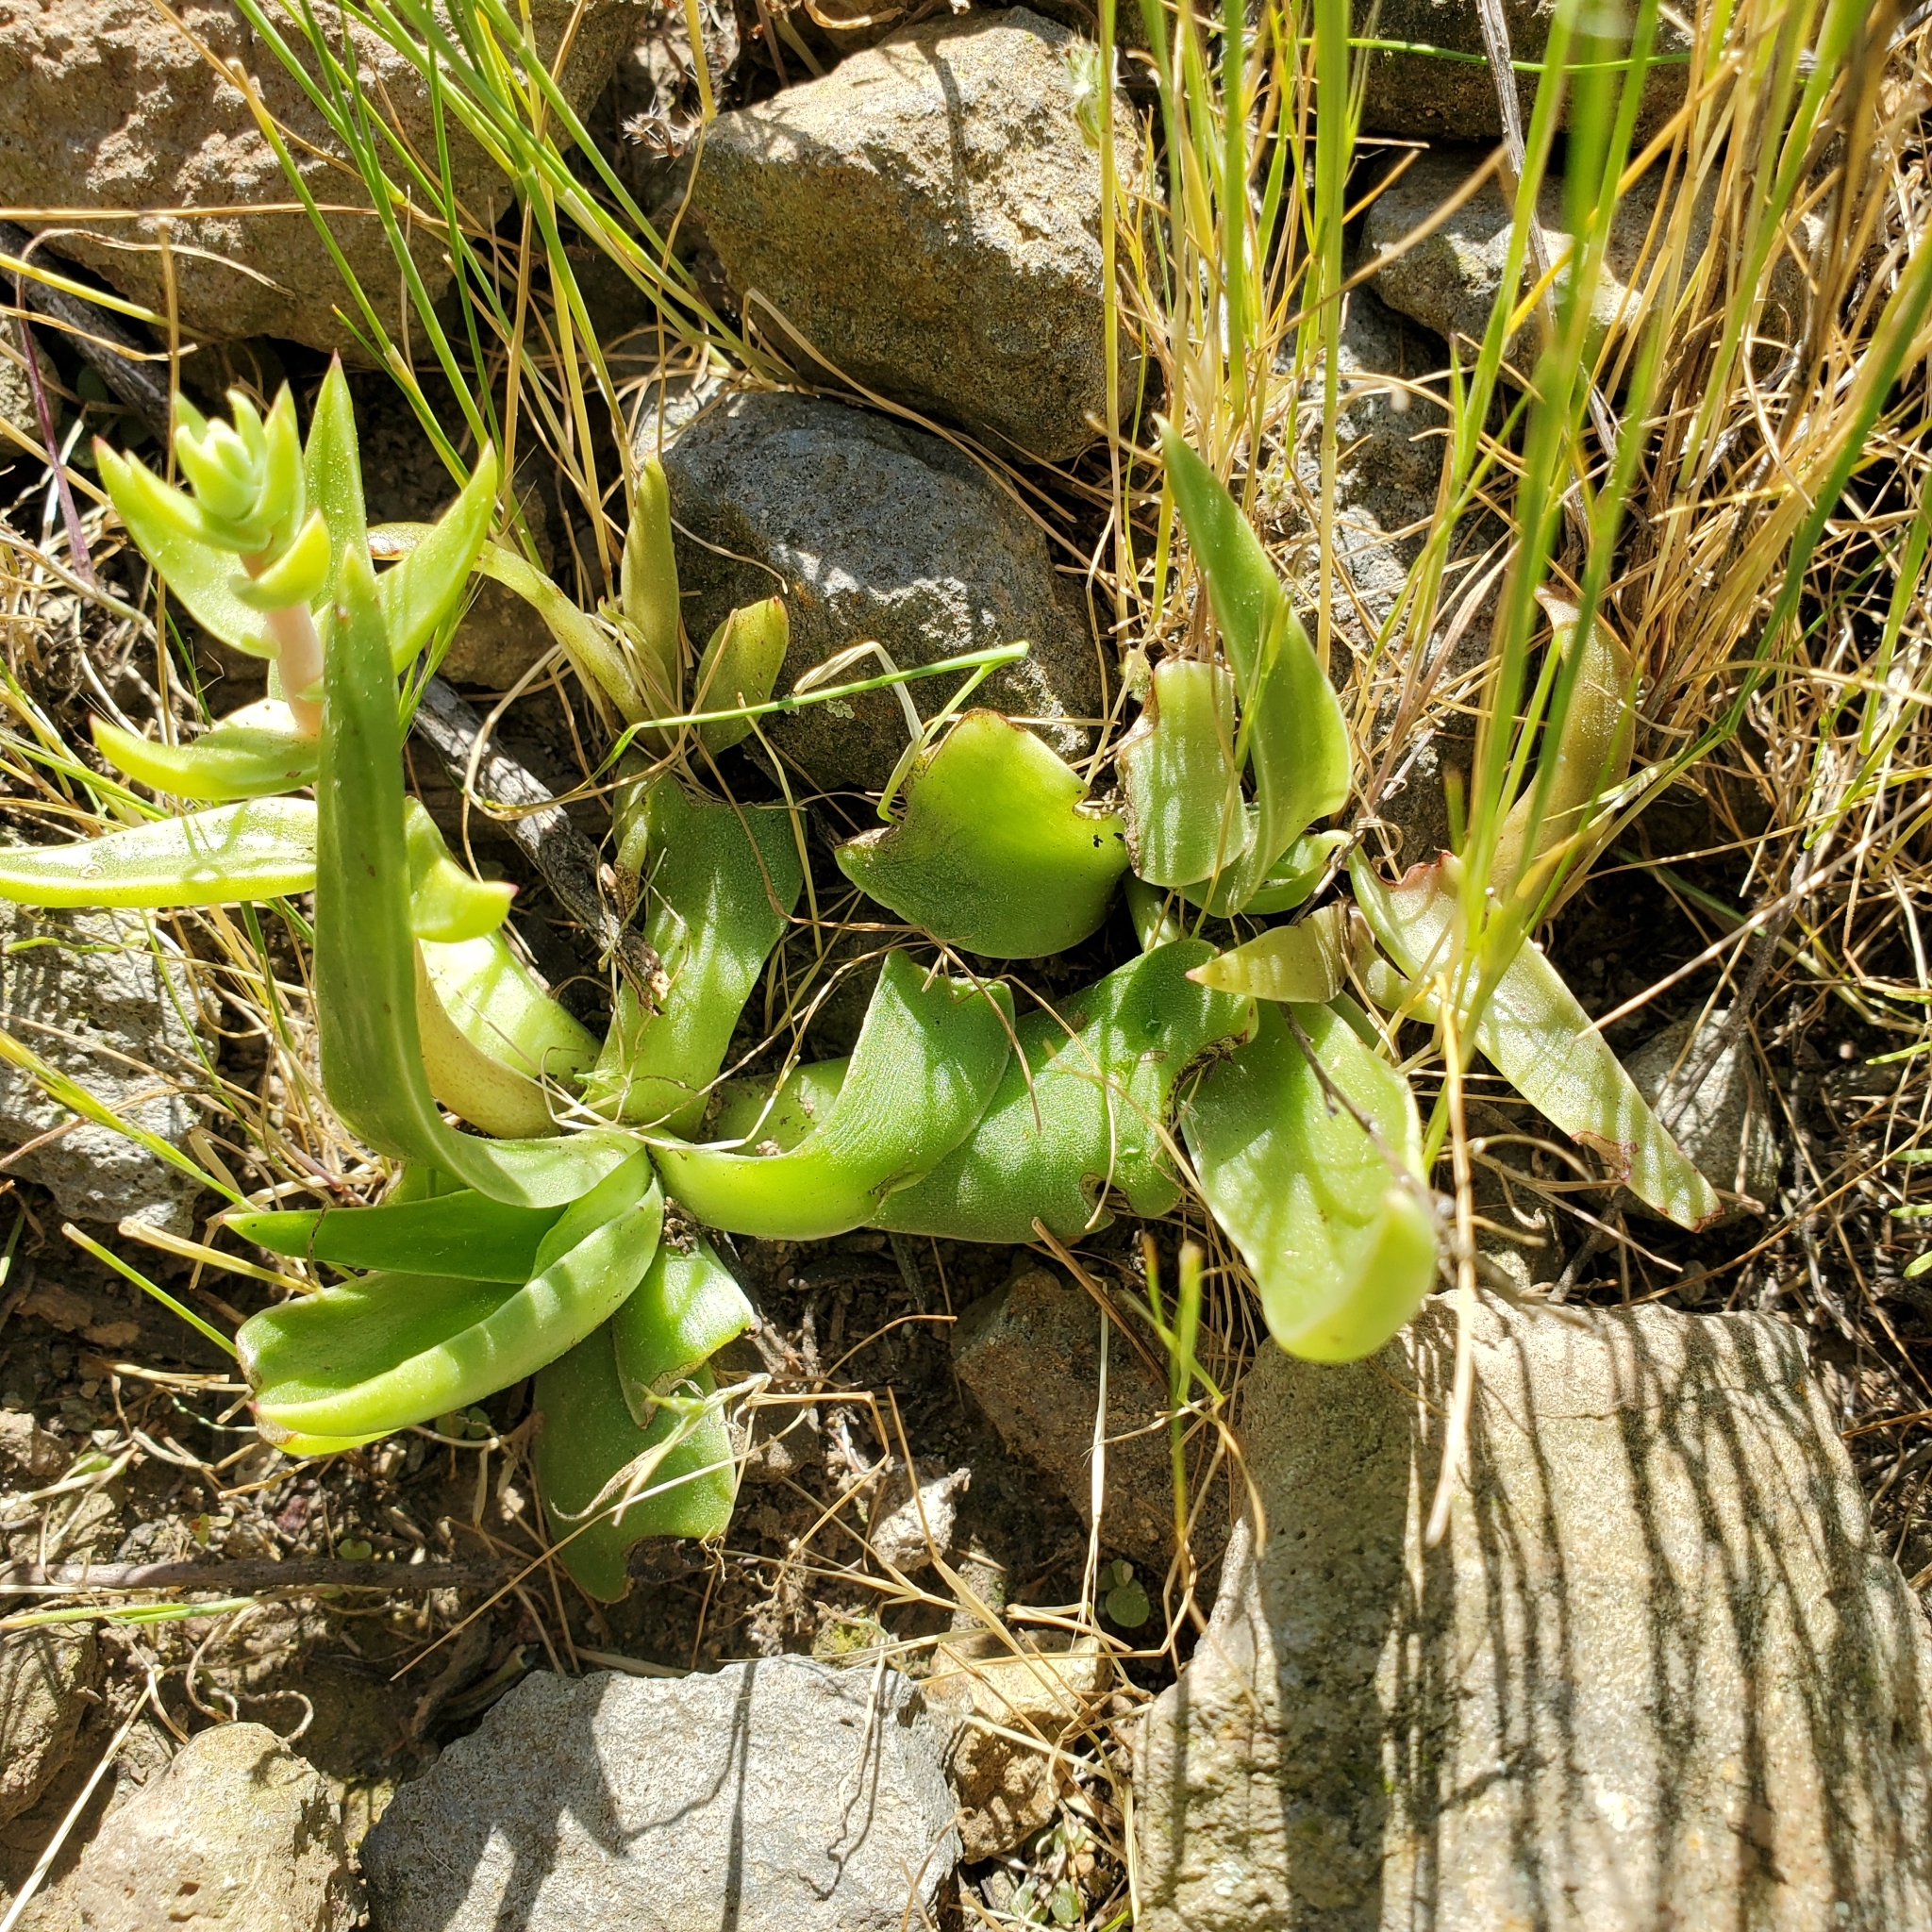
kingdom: Plantae
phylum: Tracheophyta
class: Magnoliopsida
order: Saxifragales
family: Crassulaceae
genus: Dudleya
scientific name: Dudleya lanceolata
